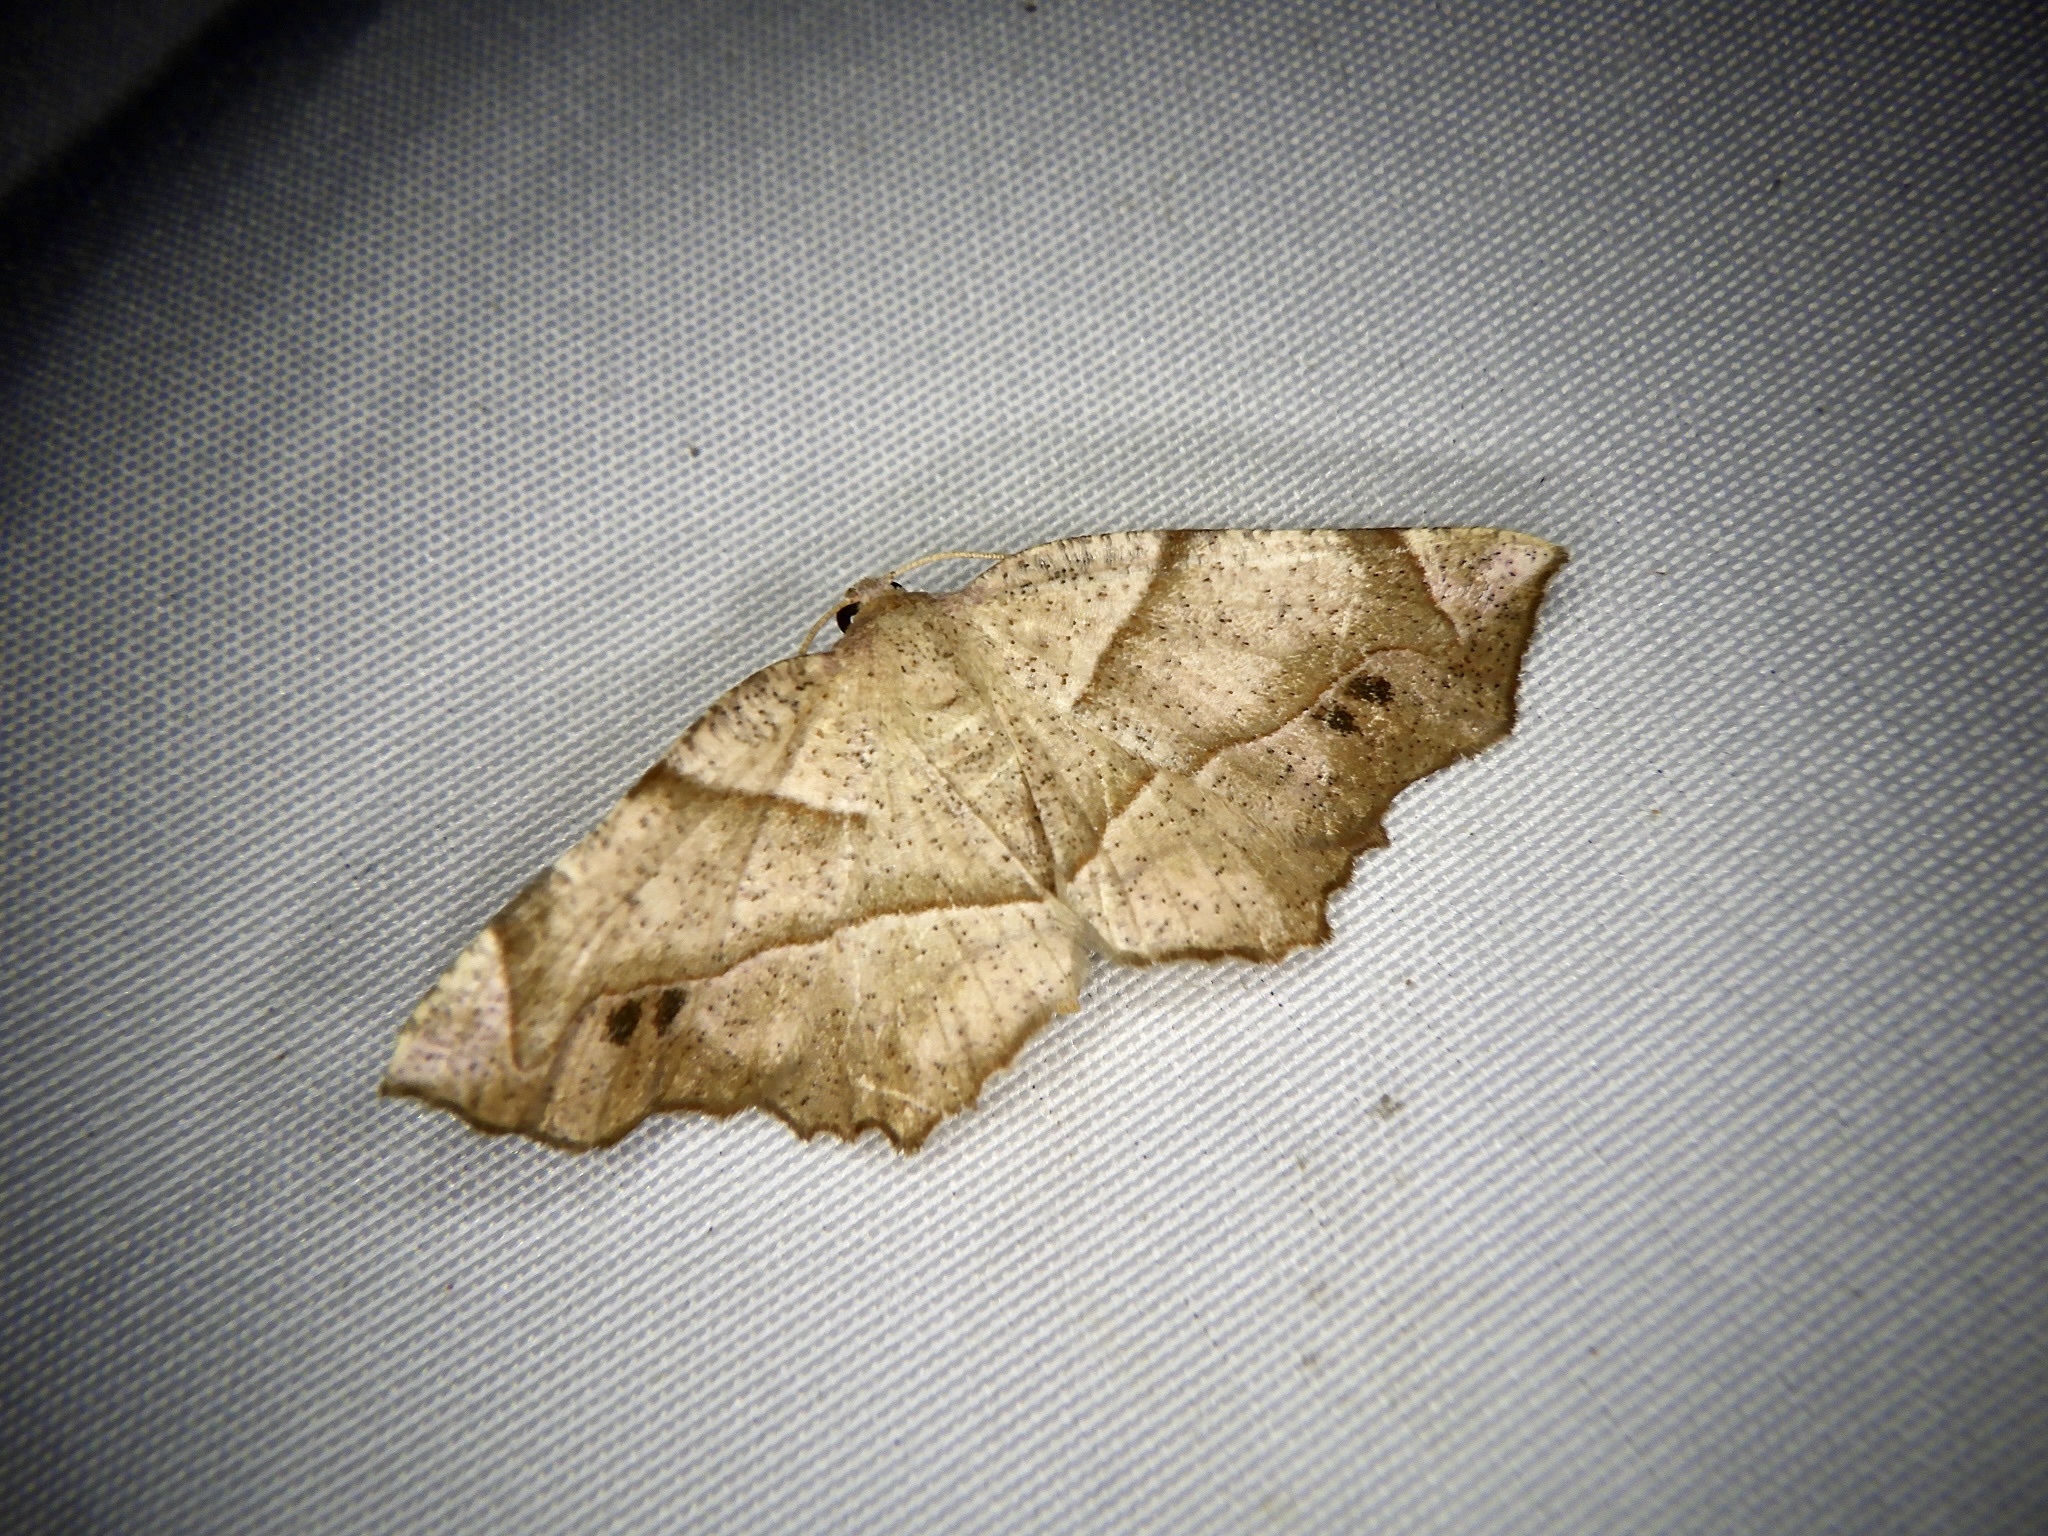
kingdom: Animalia
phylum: Arthropoda
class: Insecta
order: Lepidoptera
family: Geometridae
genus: Endropiodes
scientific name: Endropiodes indictinaria
